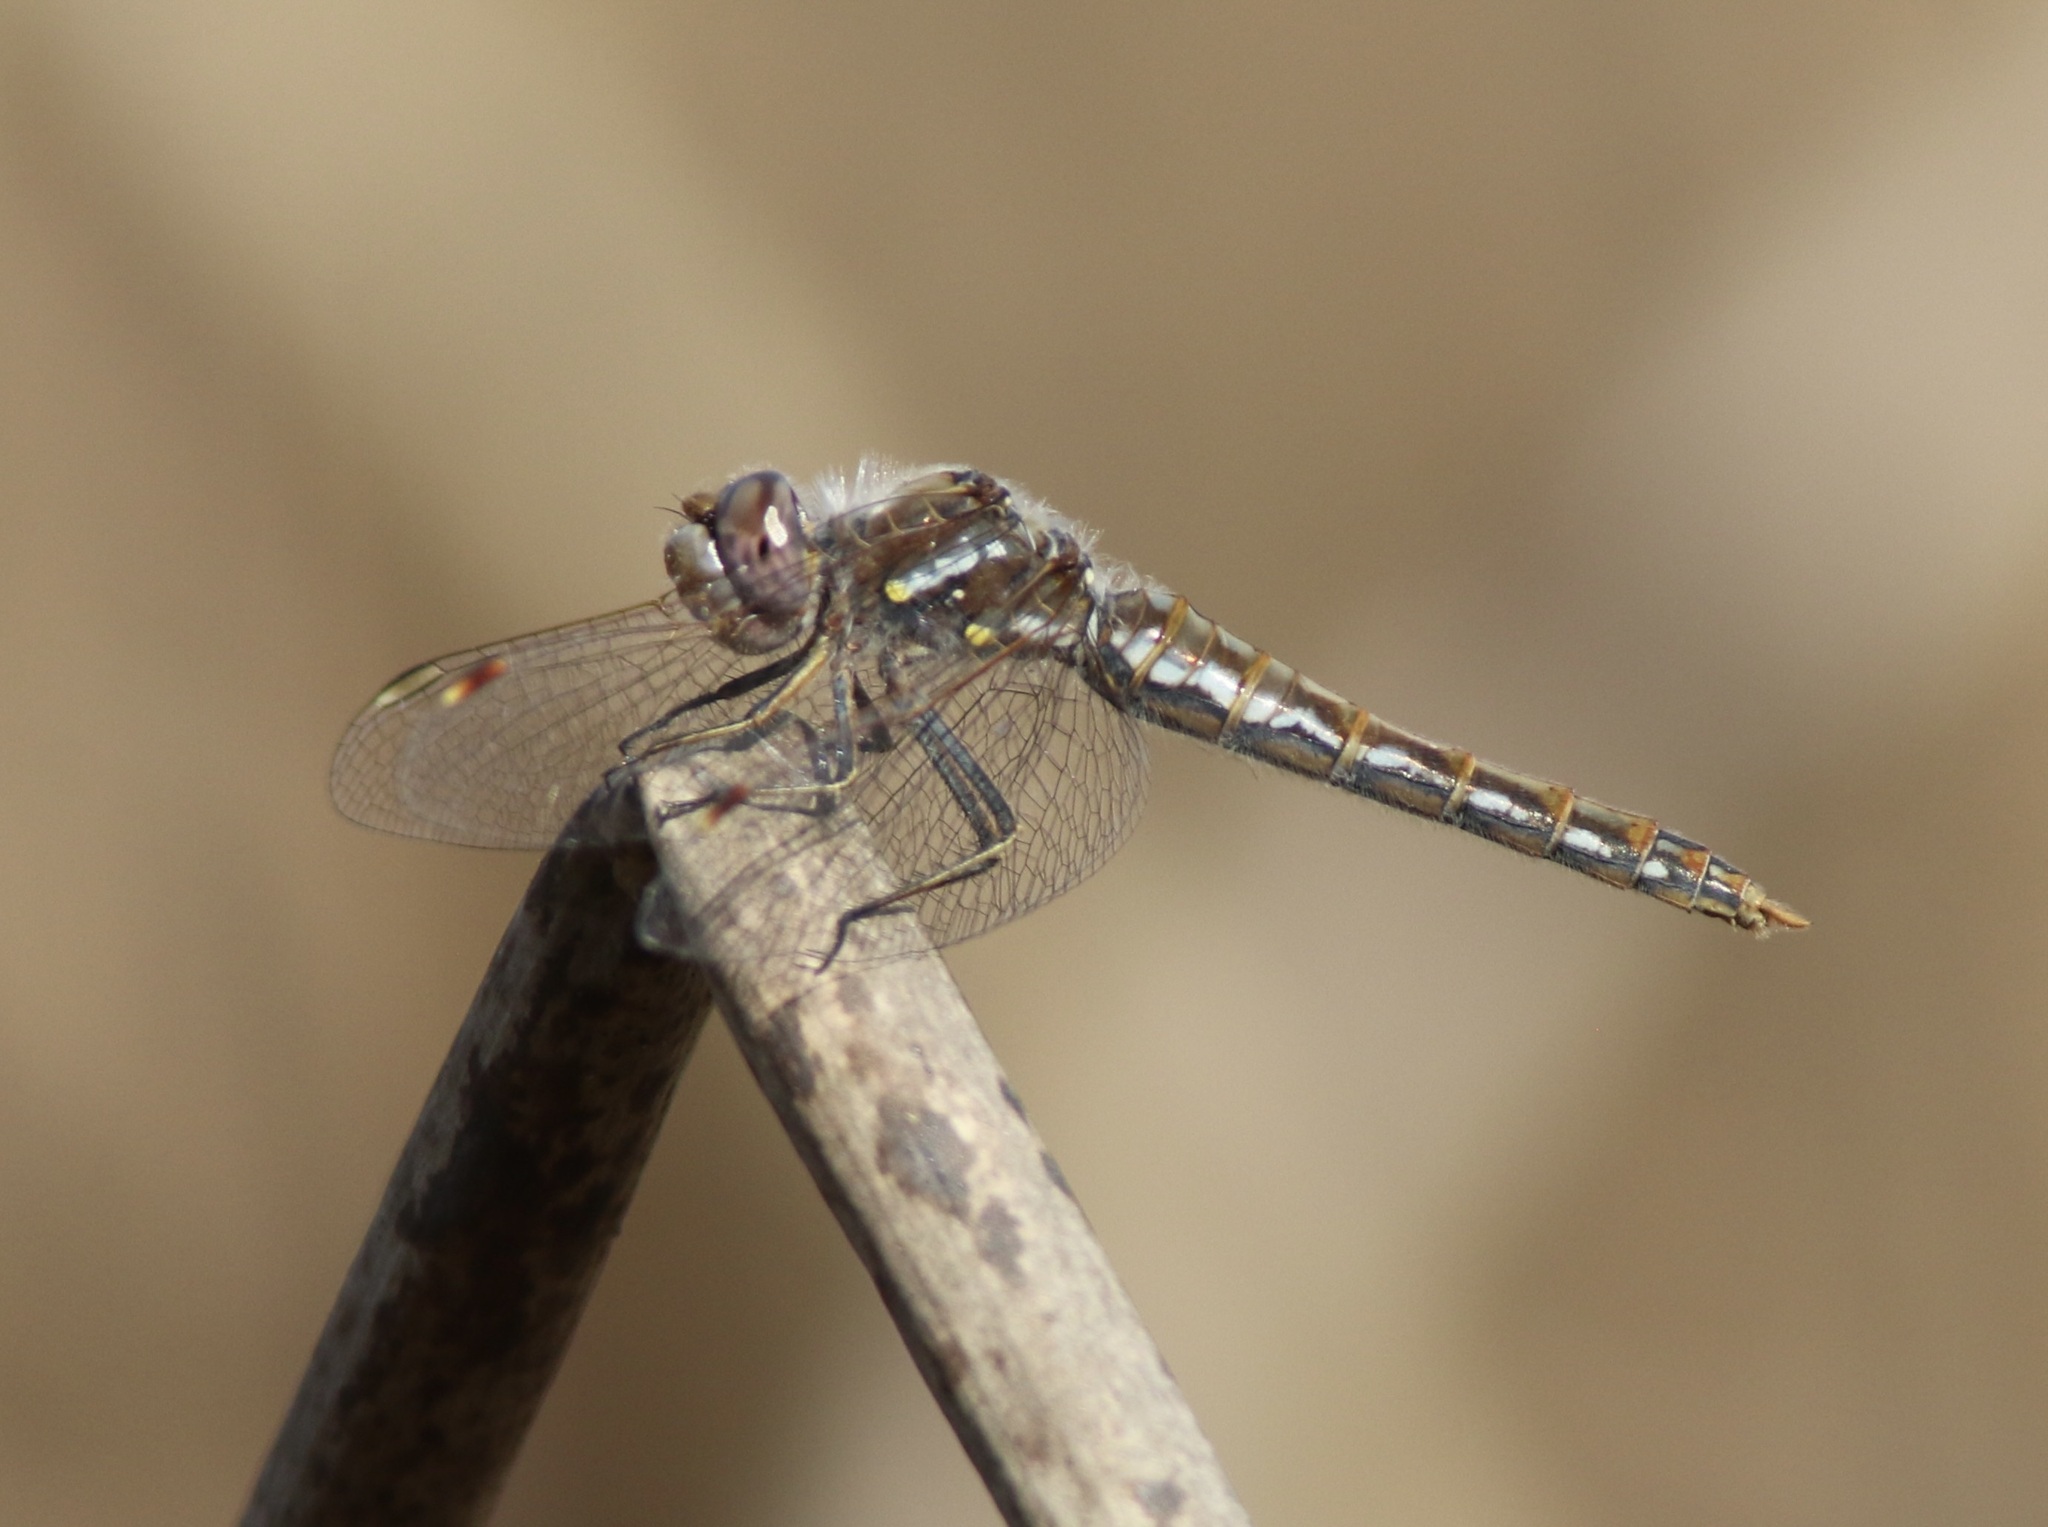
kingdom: Animalia
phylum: Arthropoda
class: Insecta
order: Odonata
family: Libellulidae
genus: Sympetrum
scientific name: Sympetrum corruptum
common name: Variegated meadowhawk
